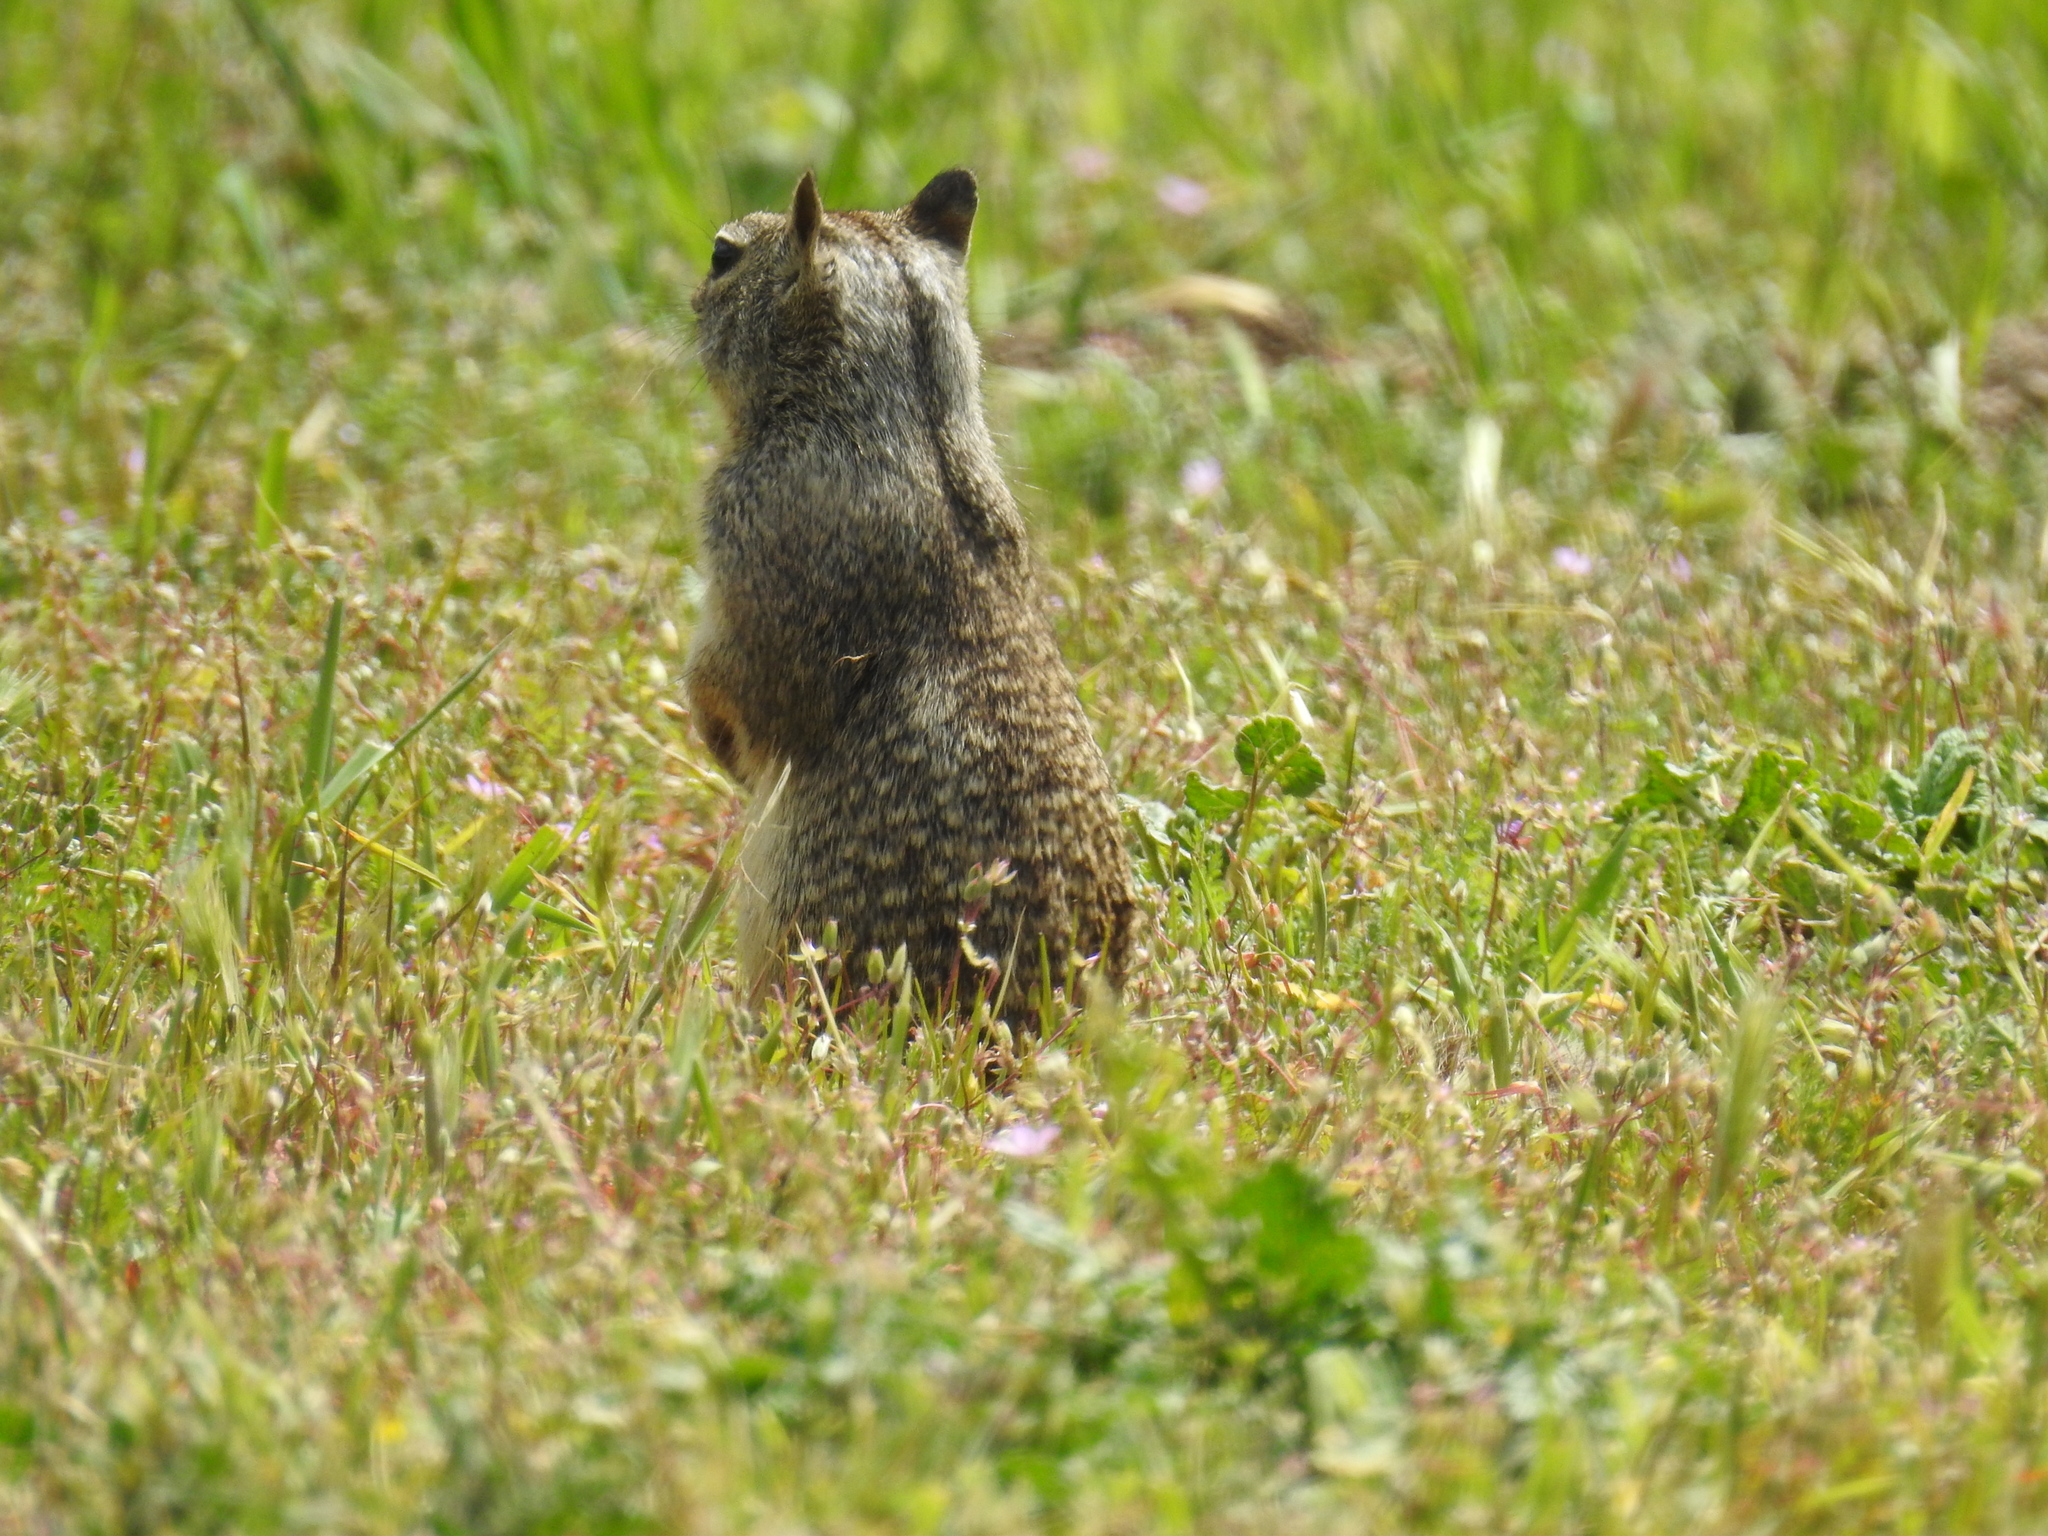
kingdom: Animalia
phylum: Chordata
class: Mammalia
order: Rodentia
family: Sciuridae
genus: Otospermophilus
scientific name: Otospermophilus beecheyi
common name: California ground squirrel
